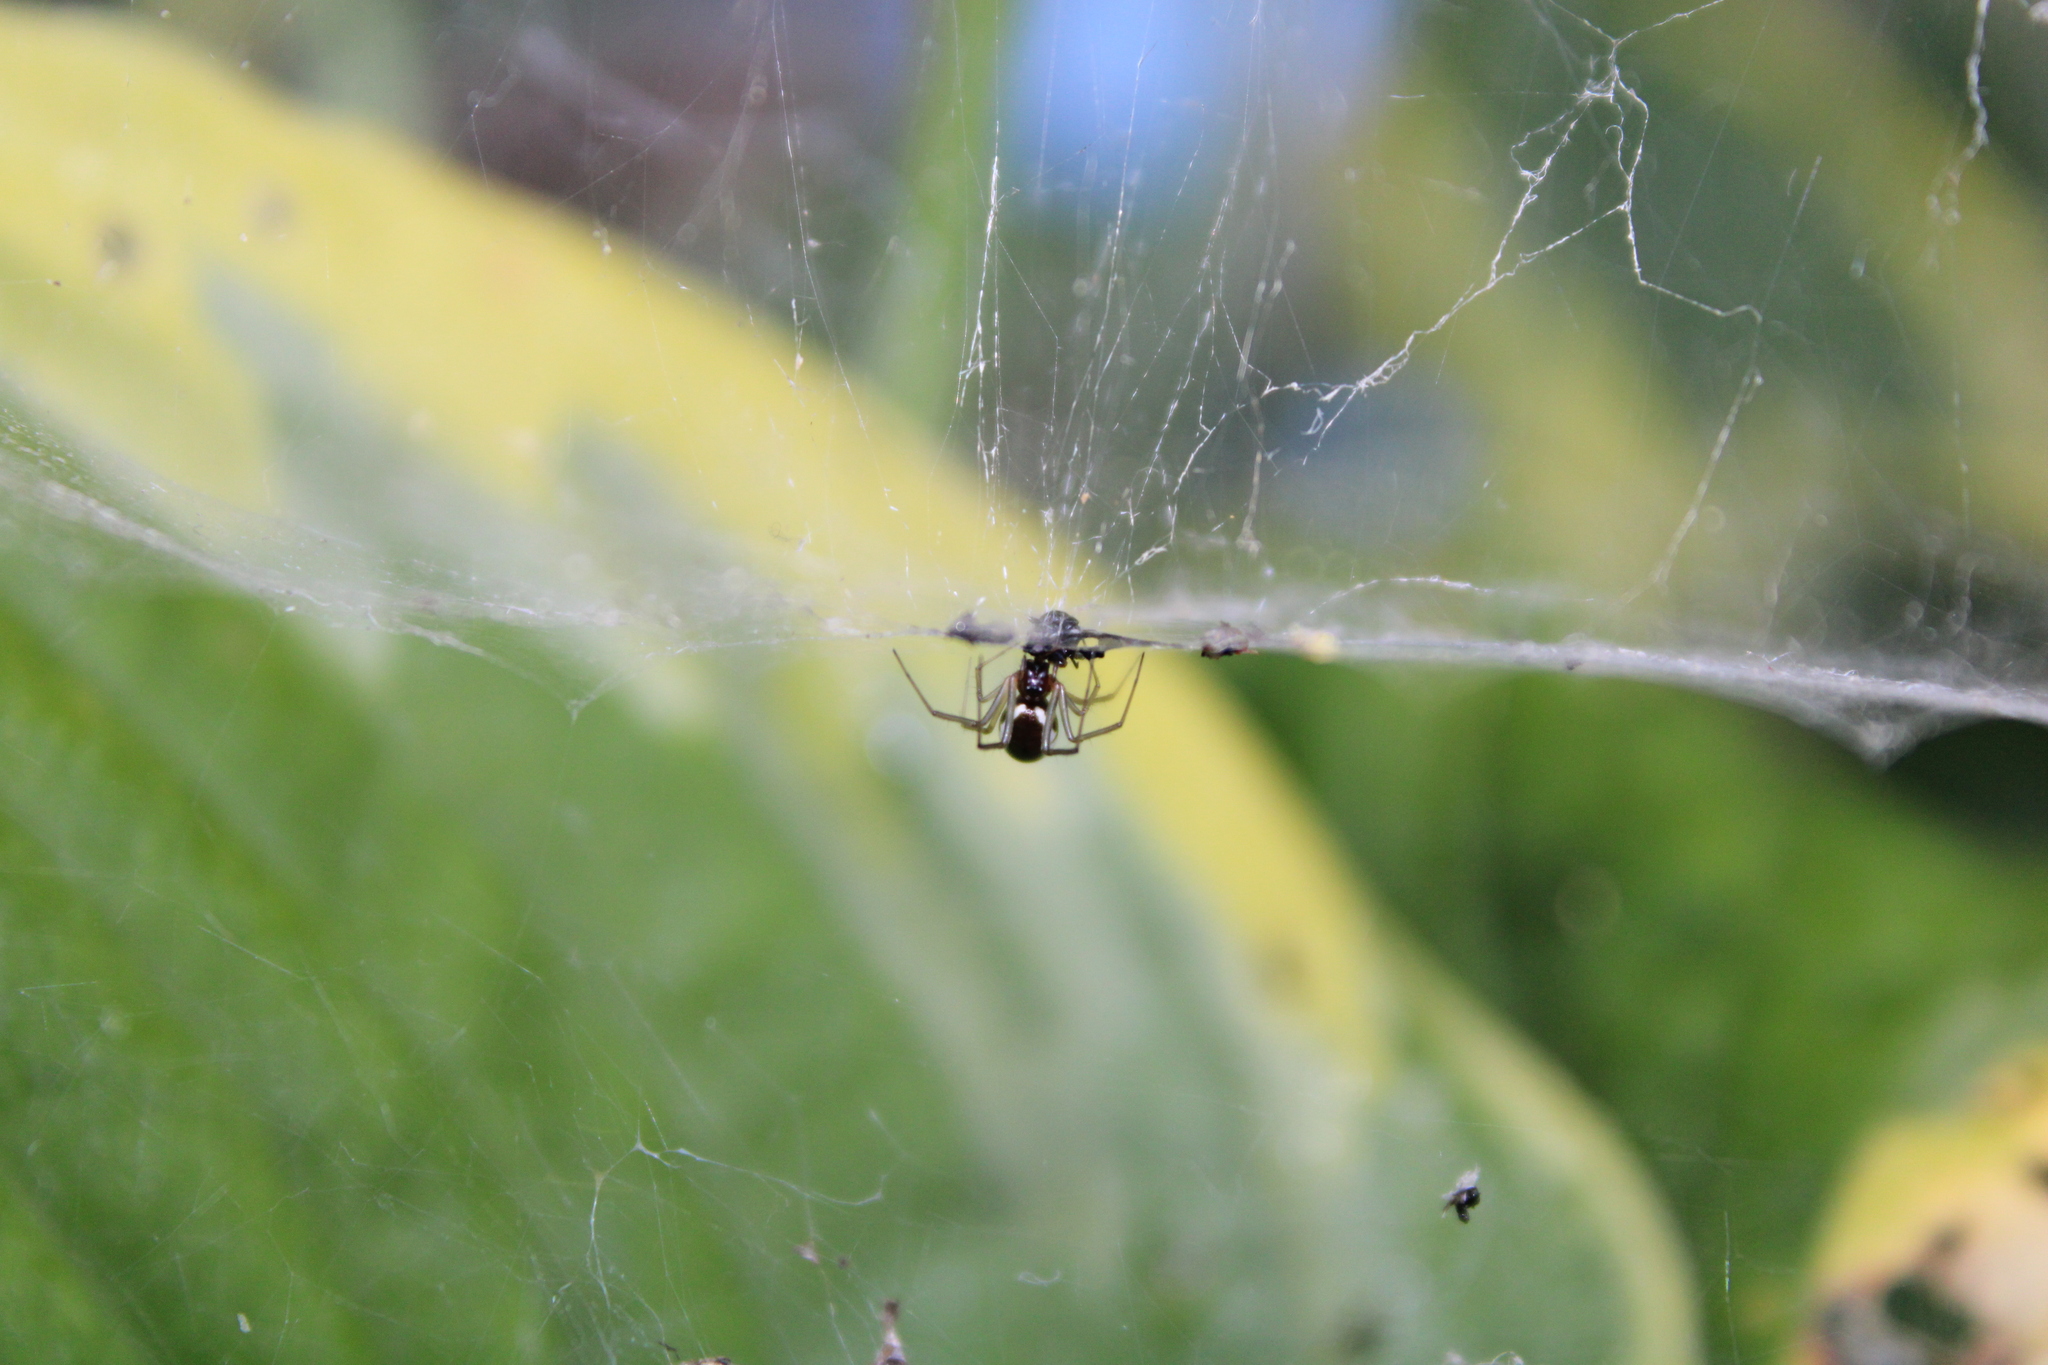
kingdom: Animalia
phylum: Arthropoda
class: Arachnida
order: Araneae
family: Linyphiidae
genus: Frontinella
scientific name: Frontinella pyramitela
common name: Bowl-and-doily spider
